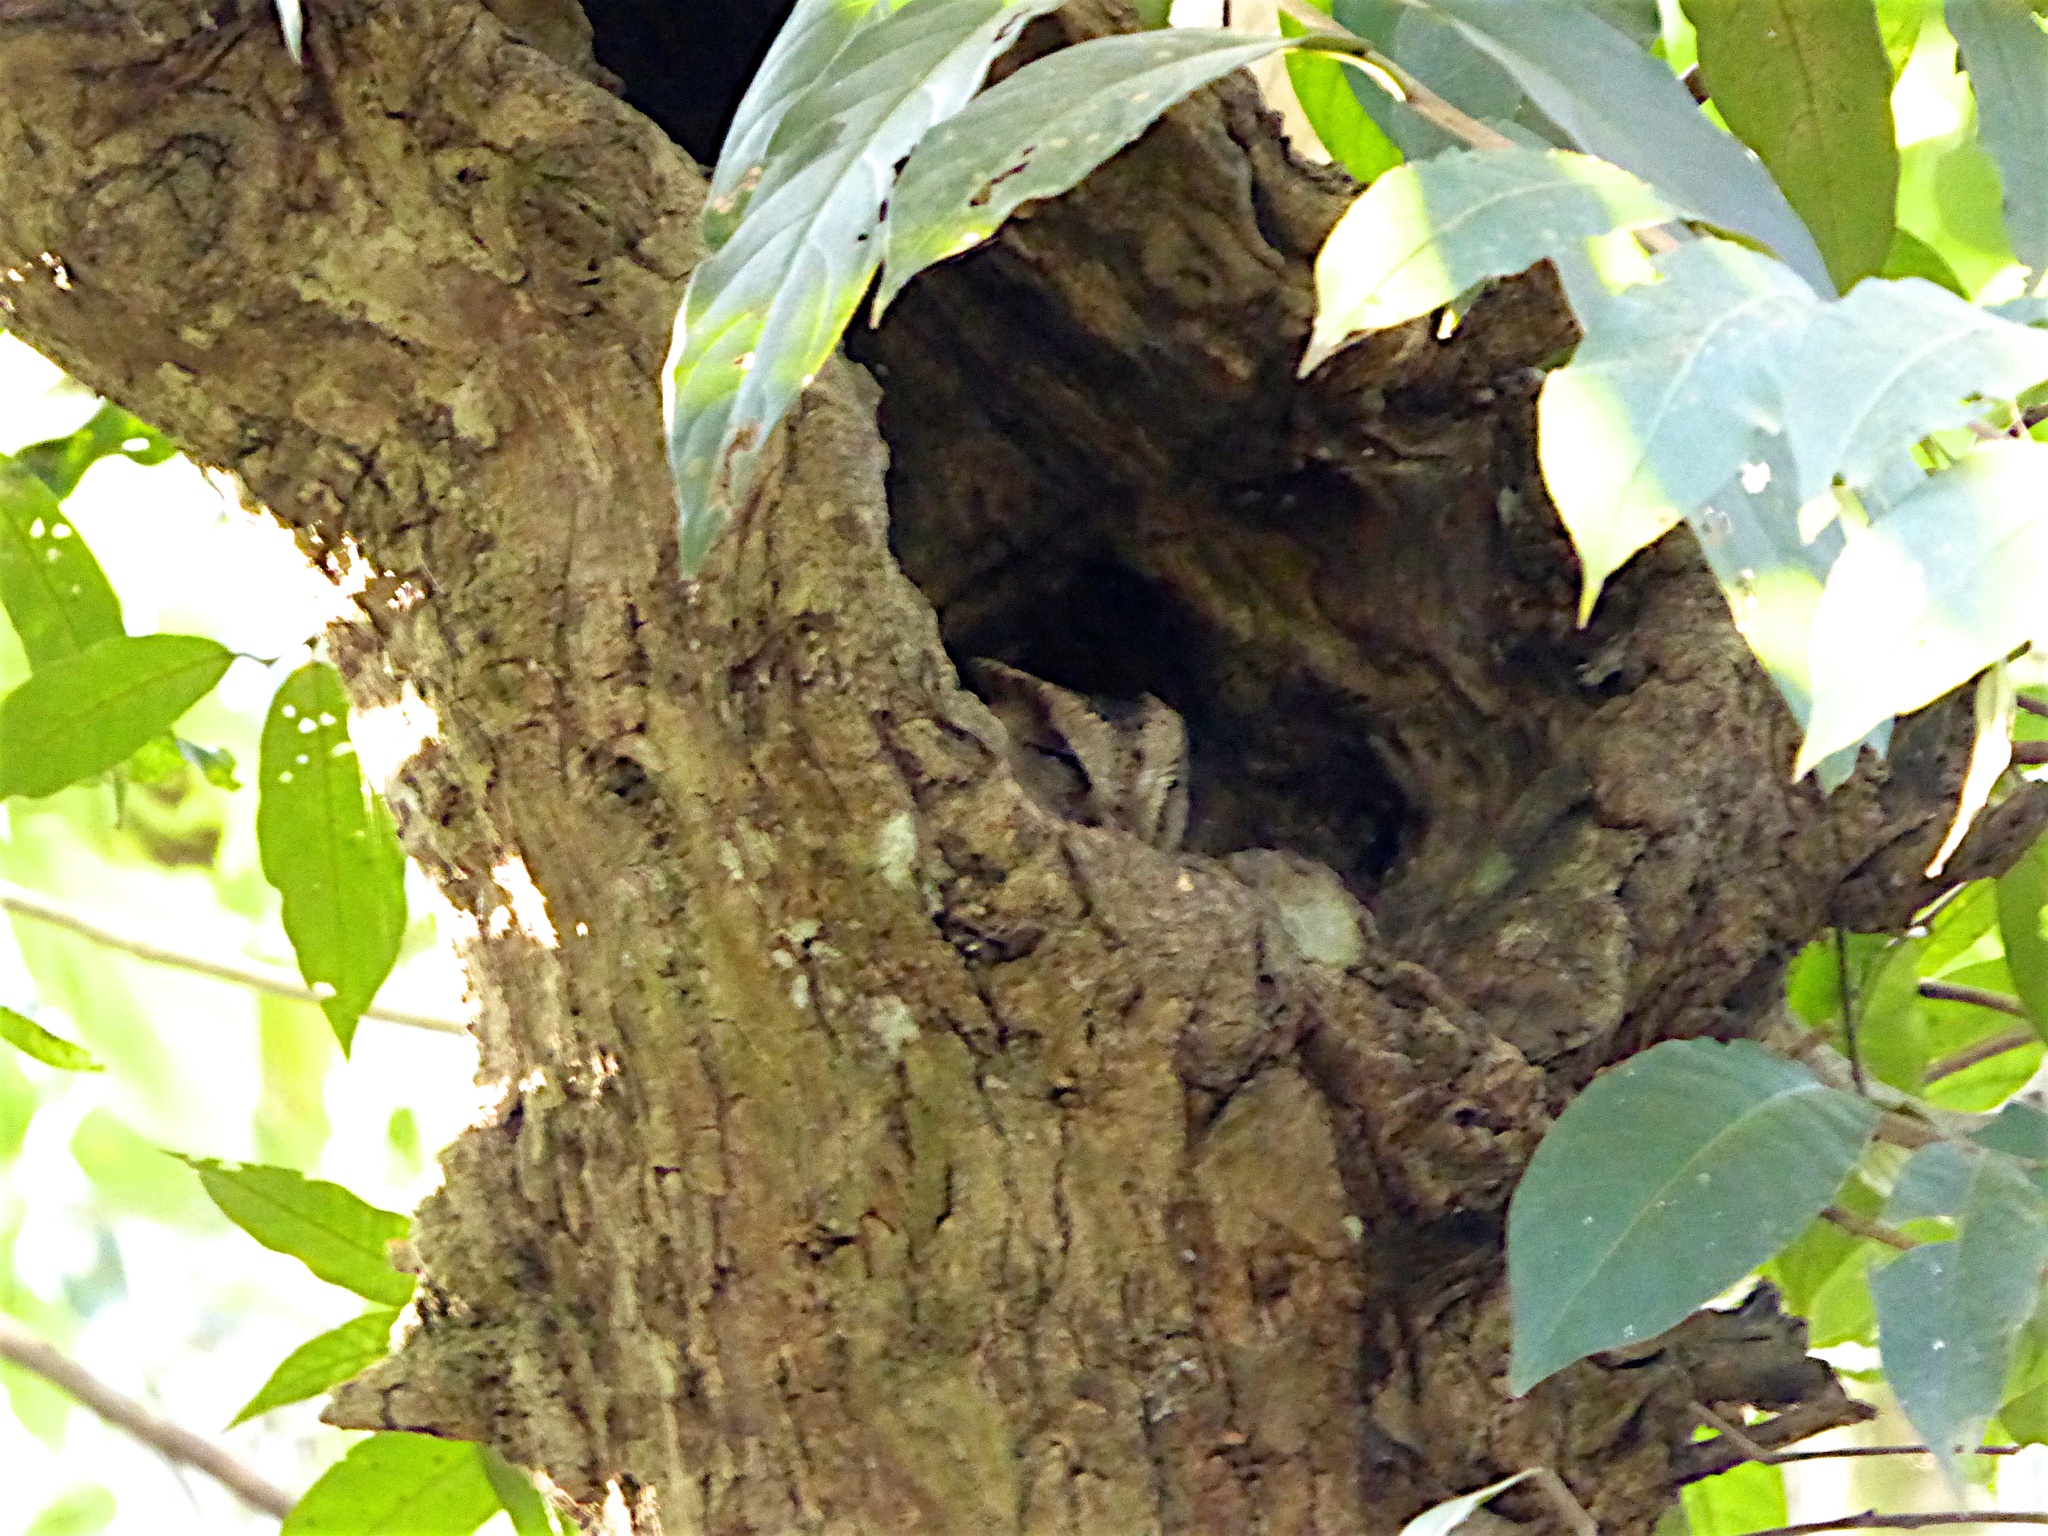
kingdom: Animalia
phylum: Chordata
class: Aves
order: Strigiformes
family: Strigidae
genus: Otus
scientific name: Otus bakkamoena
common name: Indian scops owl
